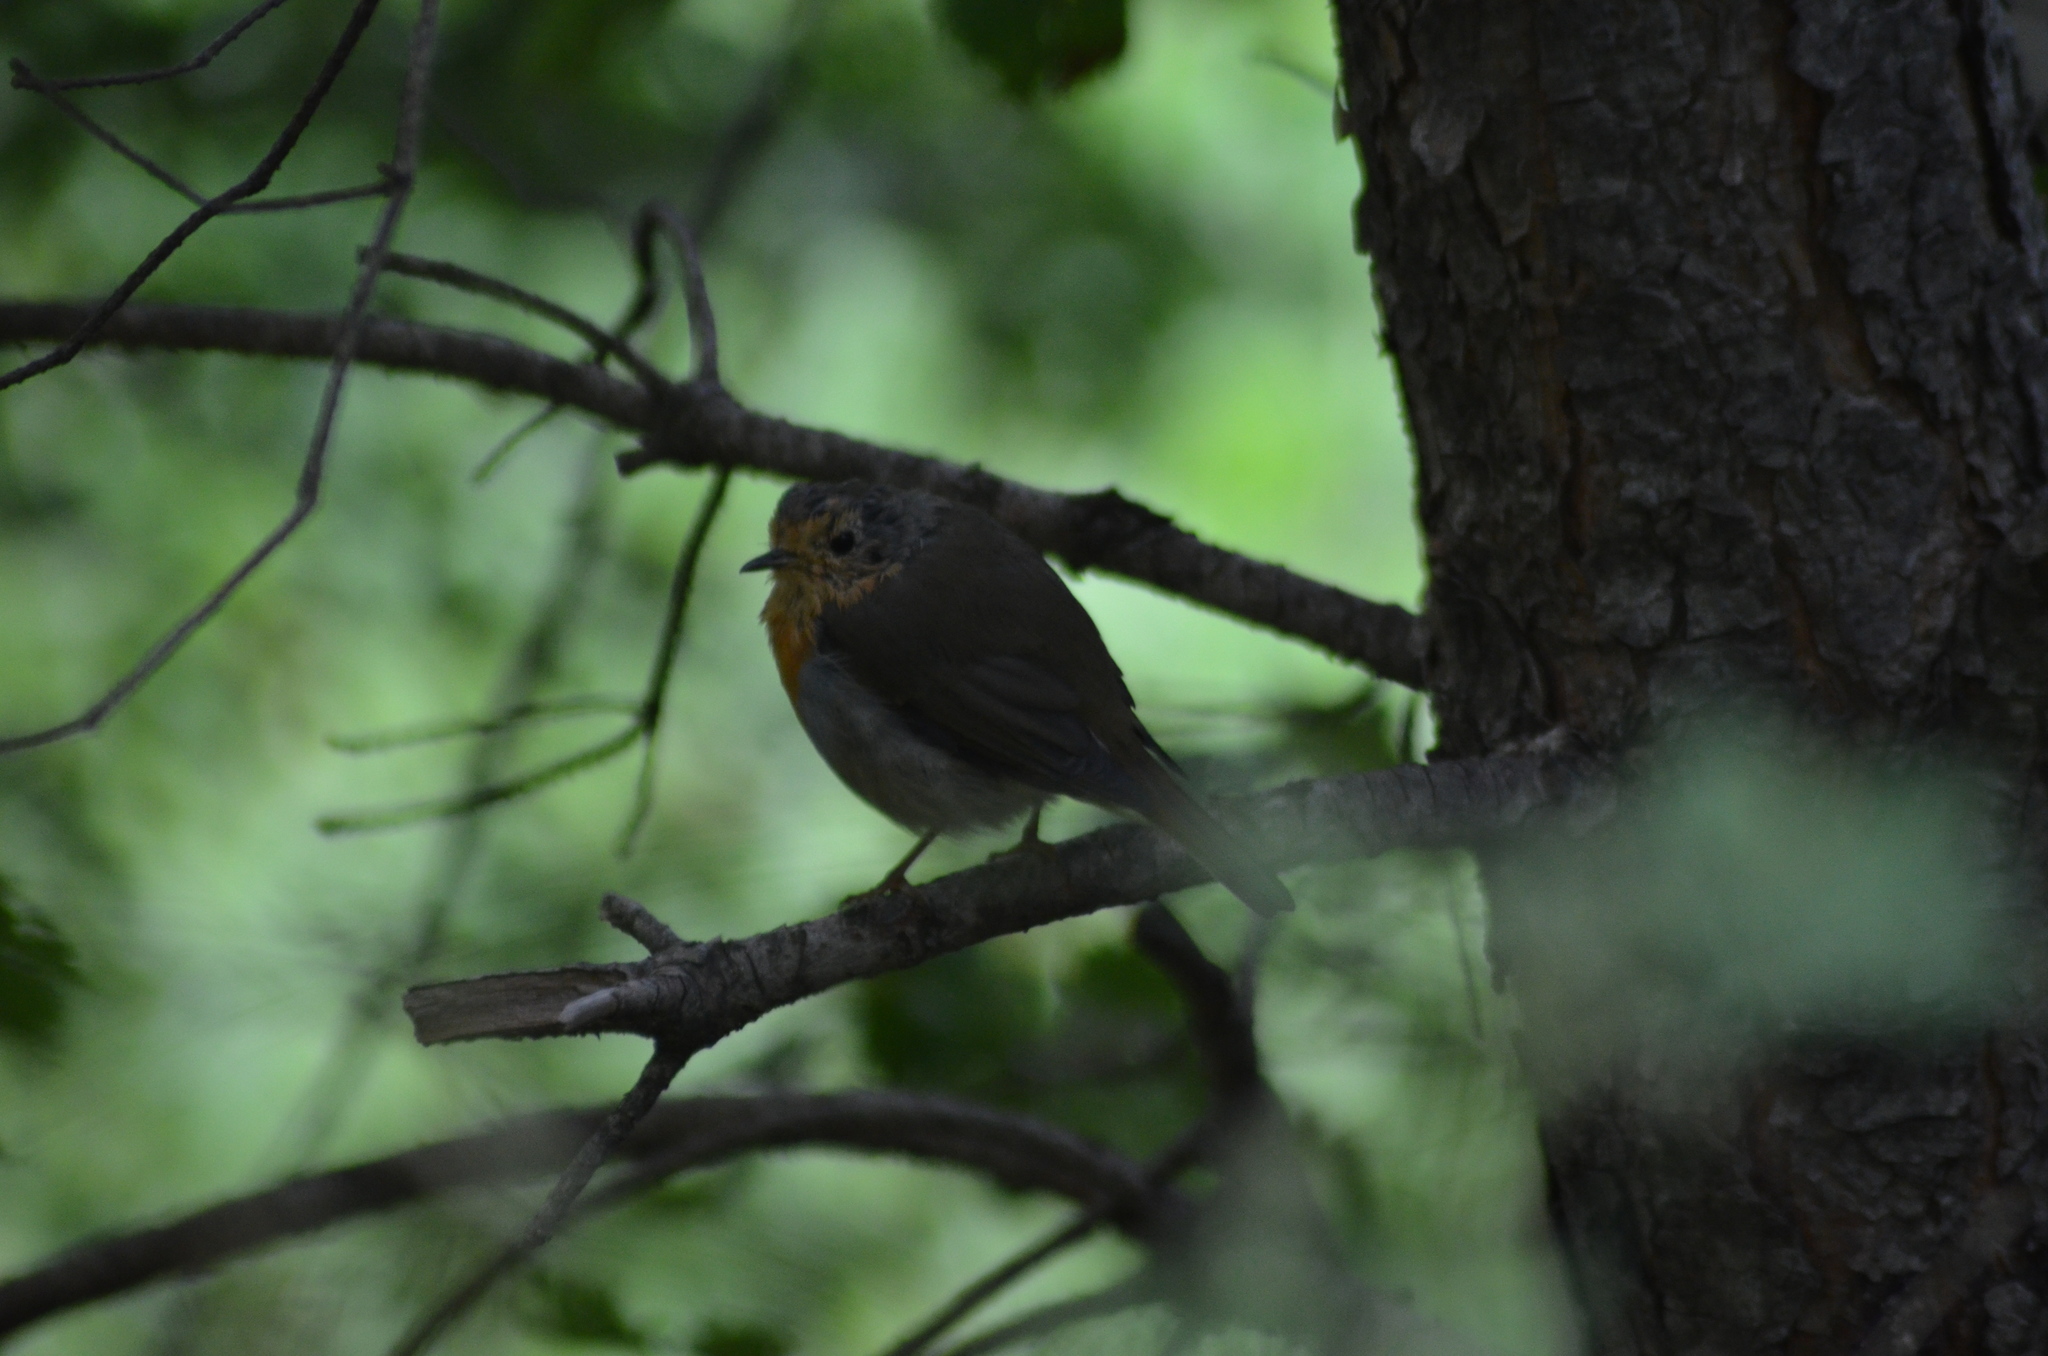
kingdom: Animalia
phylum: Chordata
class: Aves
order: Passeriformes
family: Muscicapidae
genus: Erithacus
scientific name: Erithacus rubecula
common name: European robin
